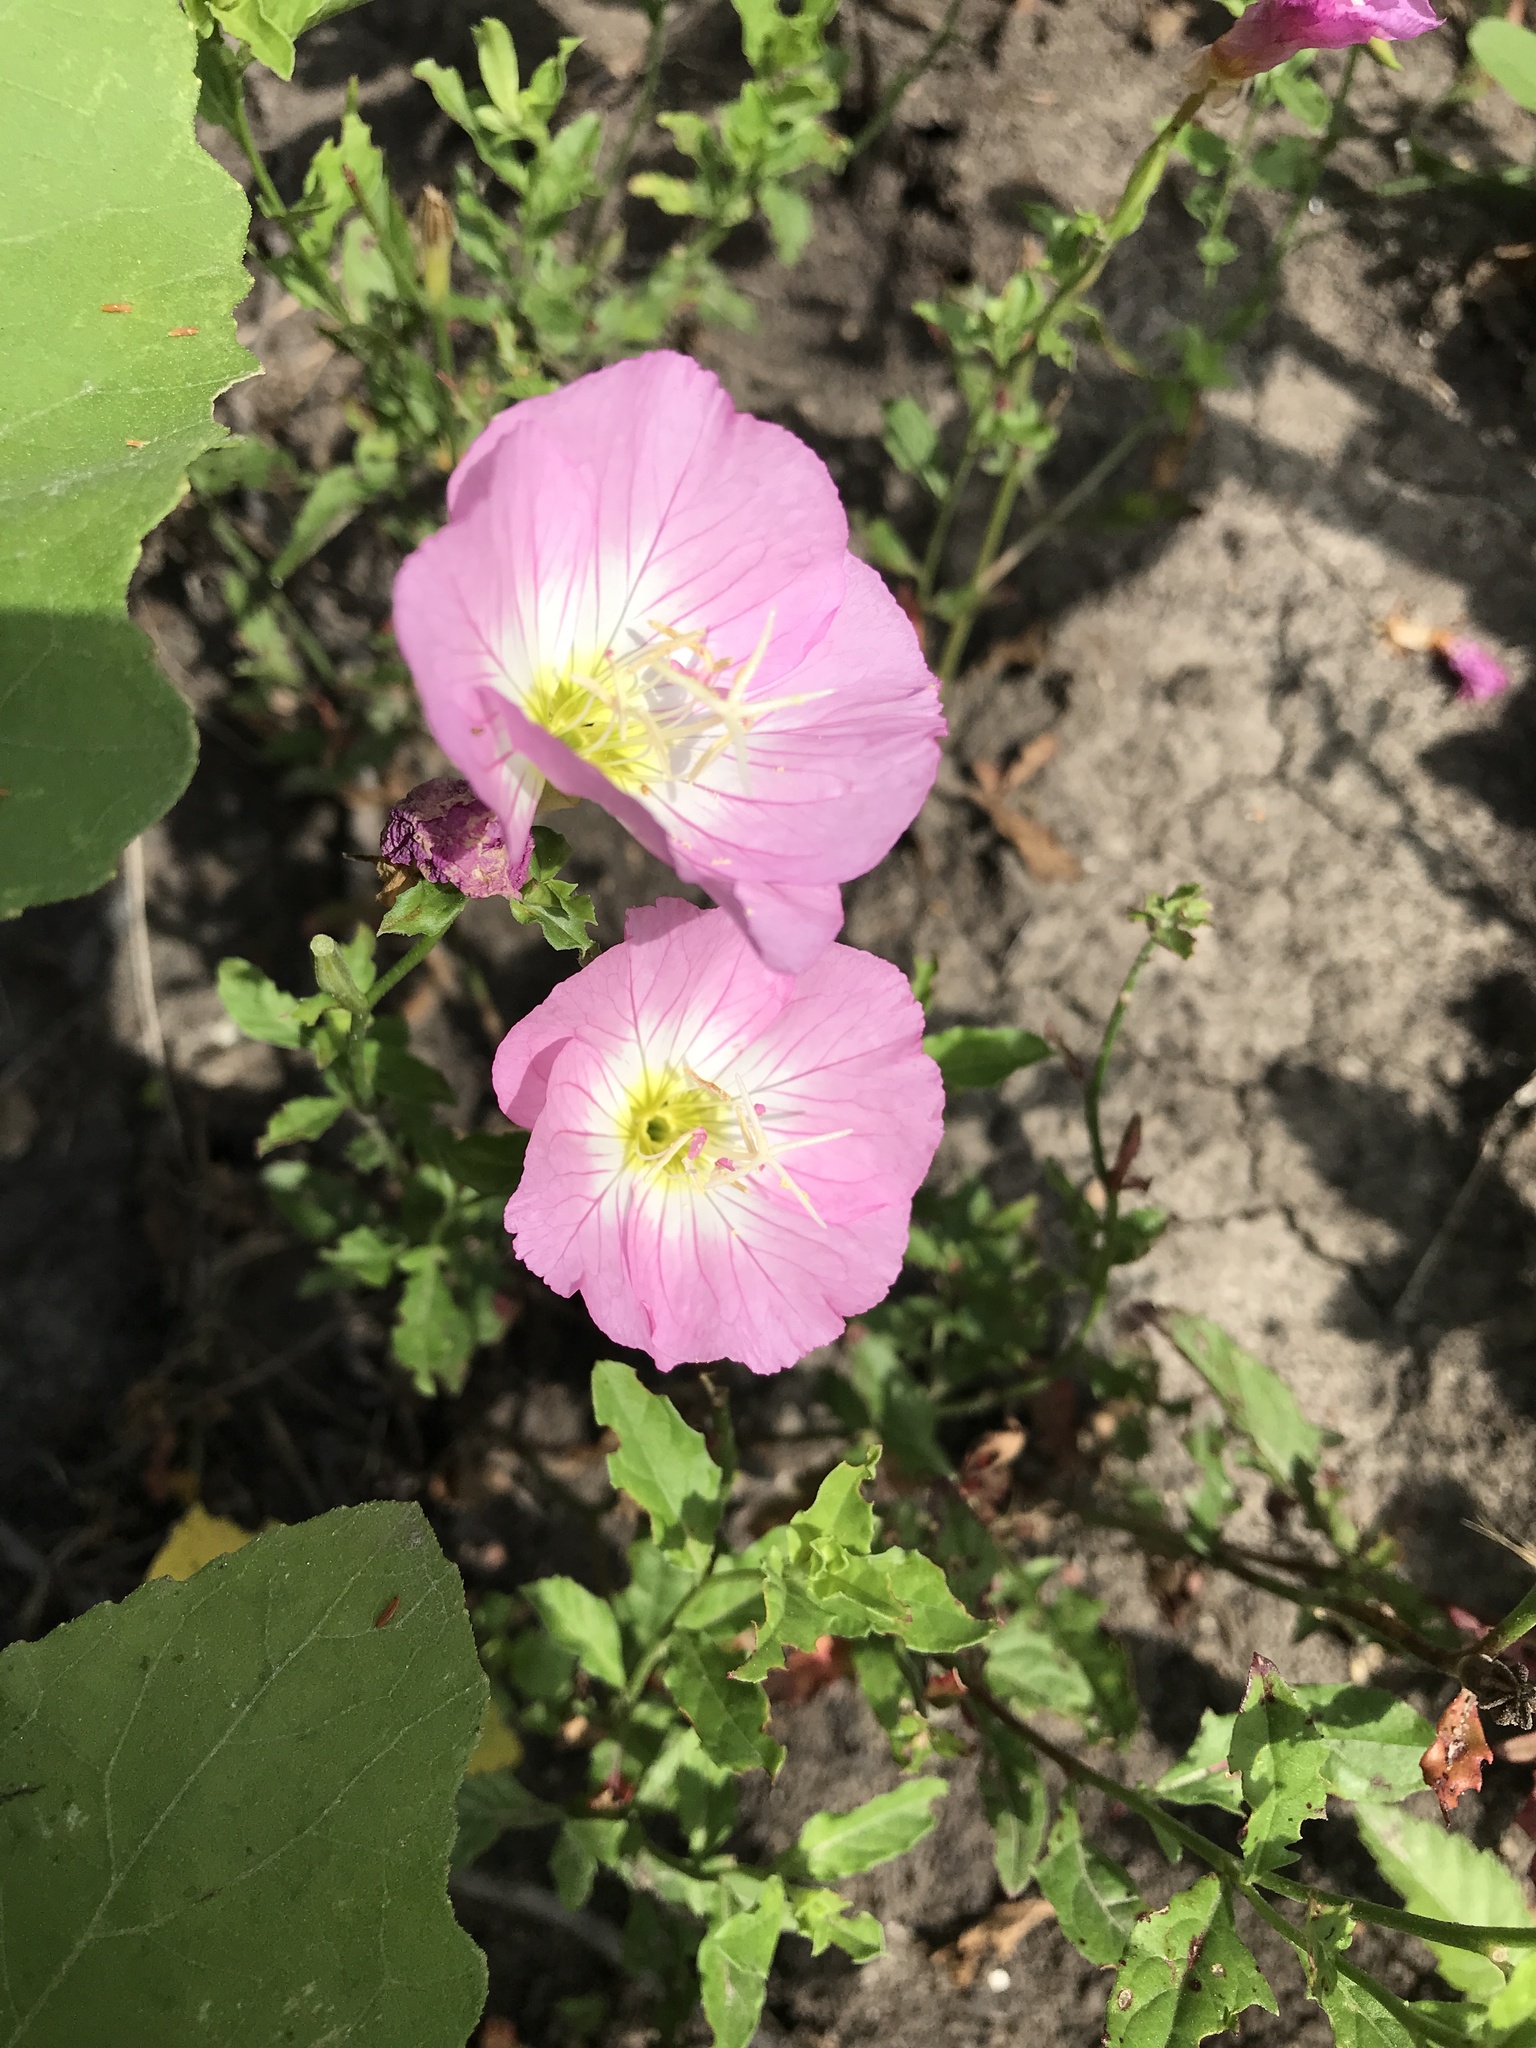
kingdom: Plantae
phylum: Tracheophyta
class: Magnoliopsida
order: Myrtales
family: Onagraceae
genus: Oenothera
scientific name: Oenothera speciosa
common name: White evening-primrose
